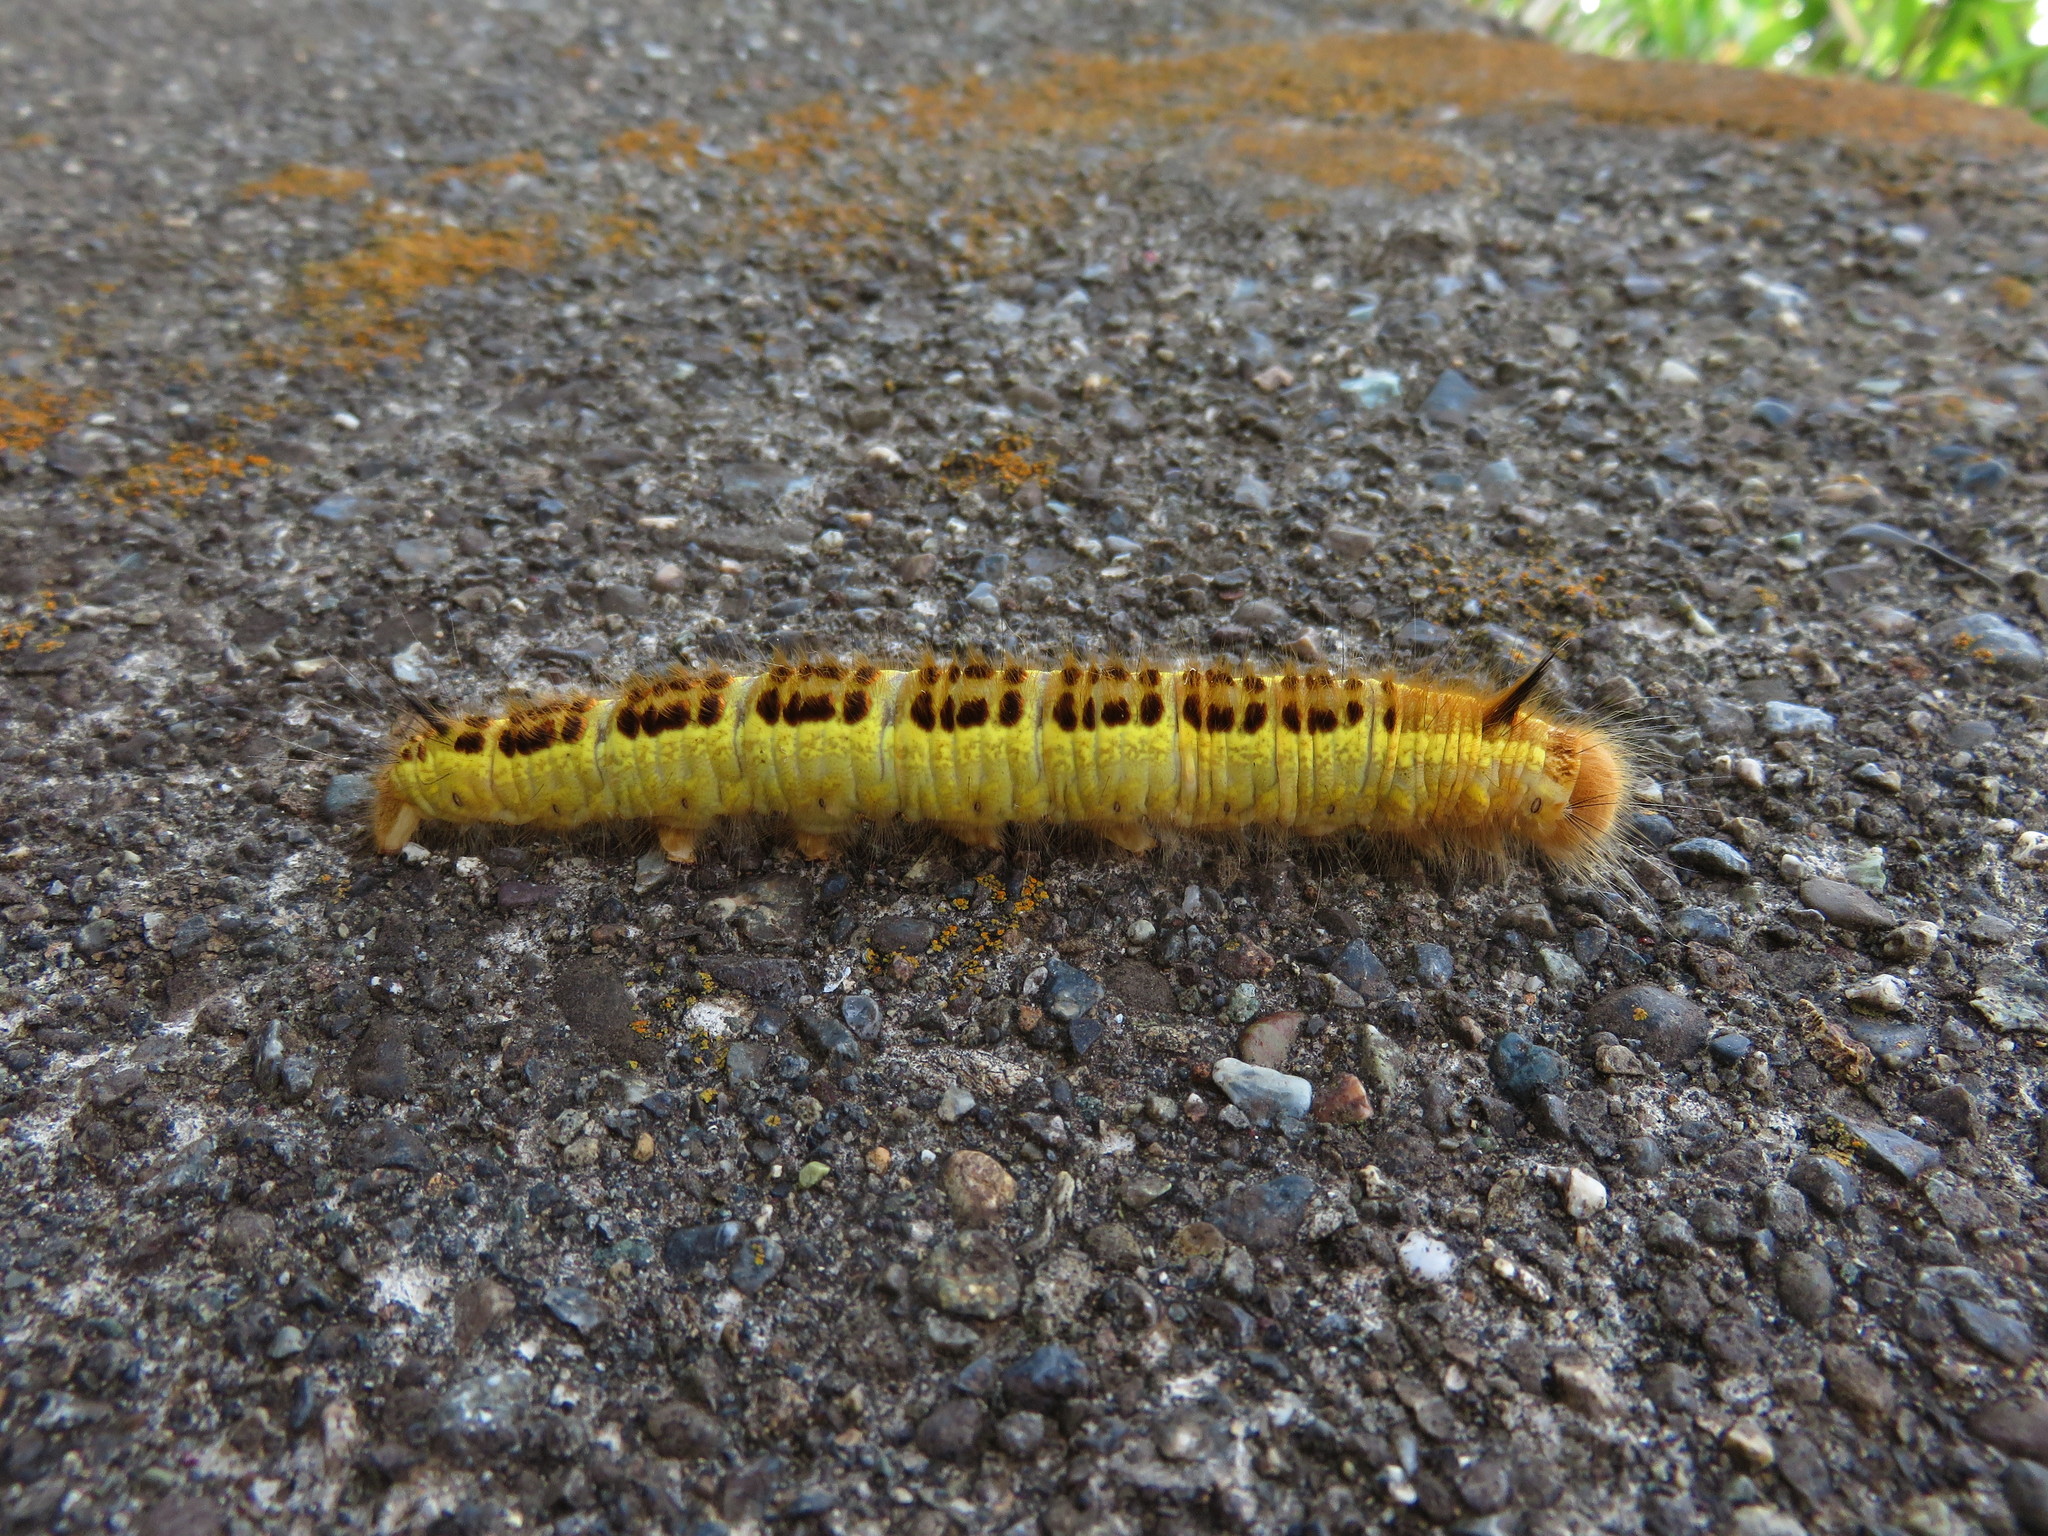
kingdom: Animalia
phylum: Arthropoda
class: Insecta
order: Lepidoptera
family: Lasiocampidae
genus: Euthrix
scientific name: Euthrix albomaculata
